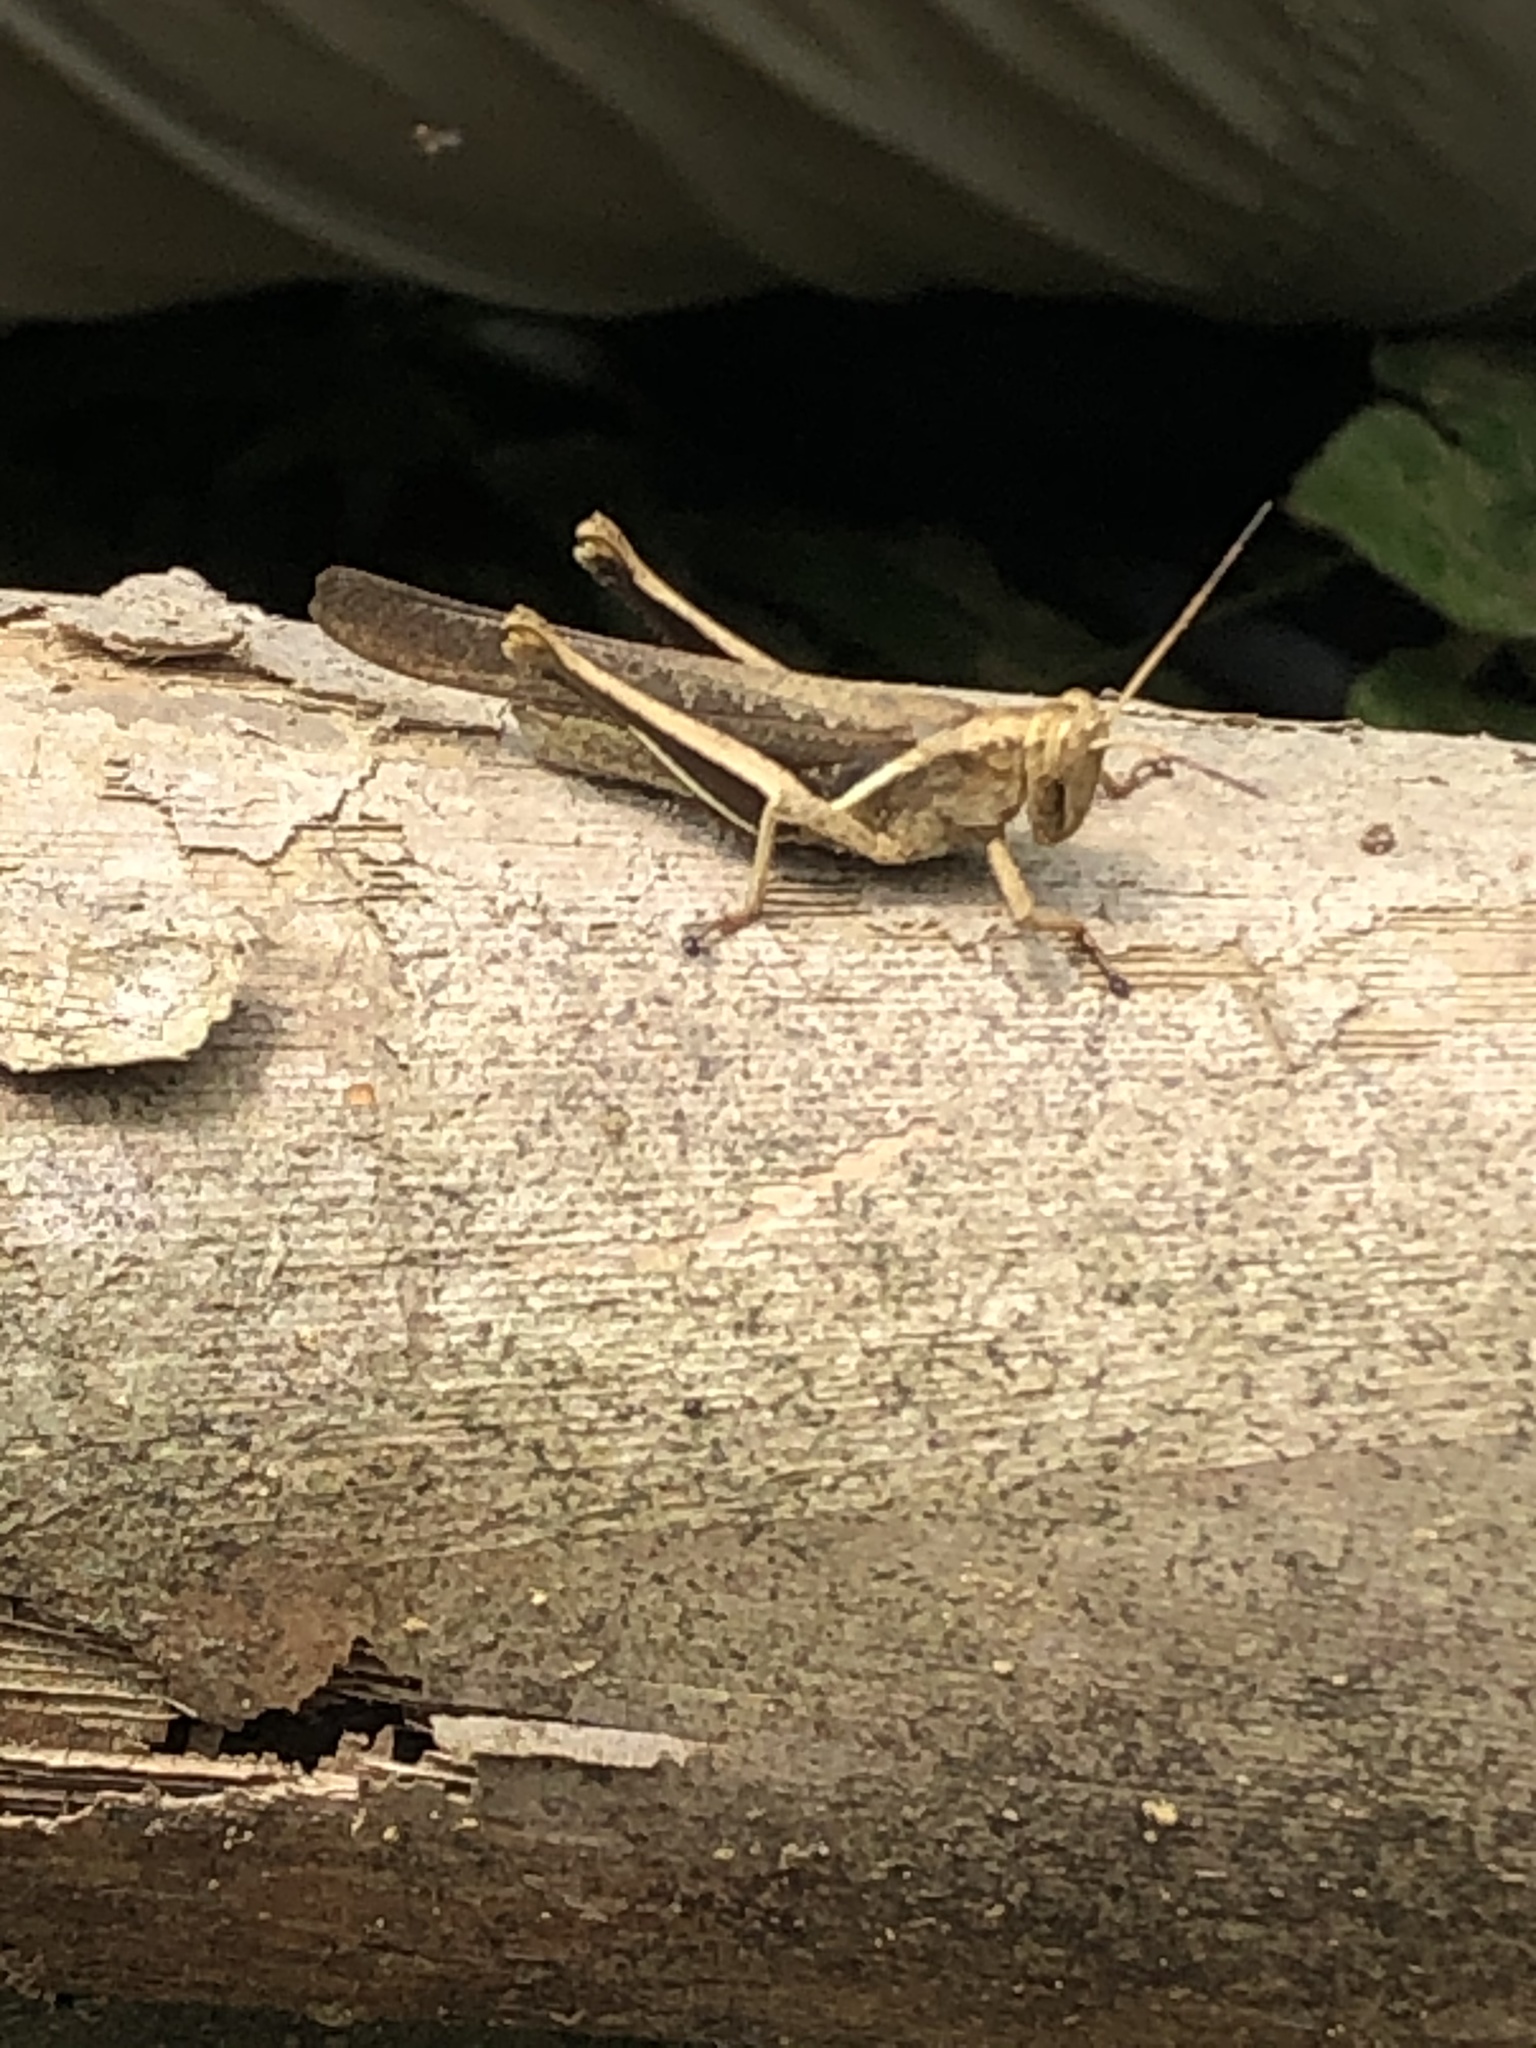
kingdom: Animalia
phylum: Arthropoda
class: Insecta
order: Orthoptera
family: Acrididae
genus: Abracris
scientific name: Abracris flavolineata
